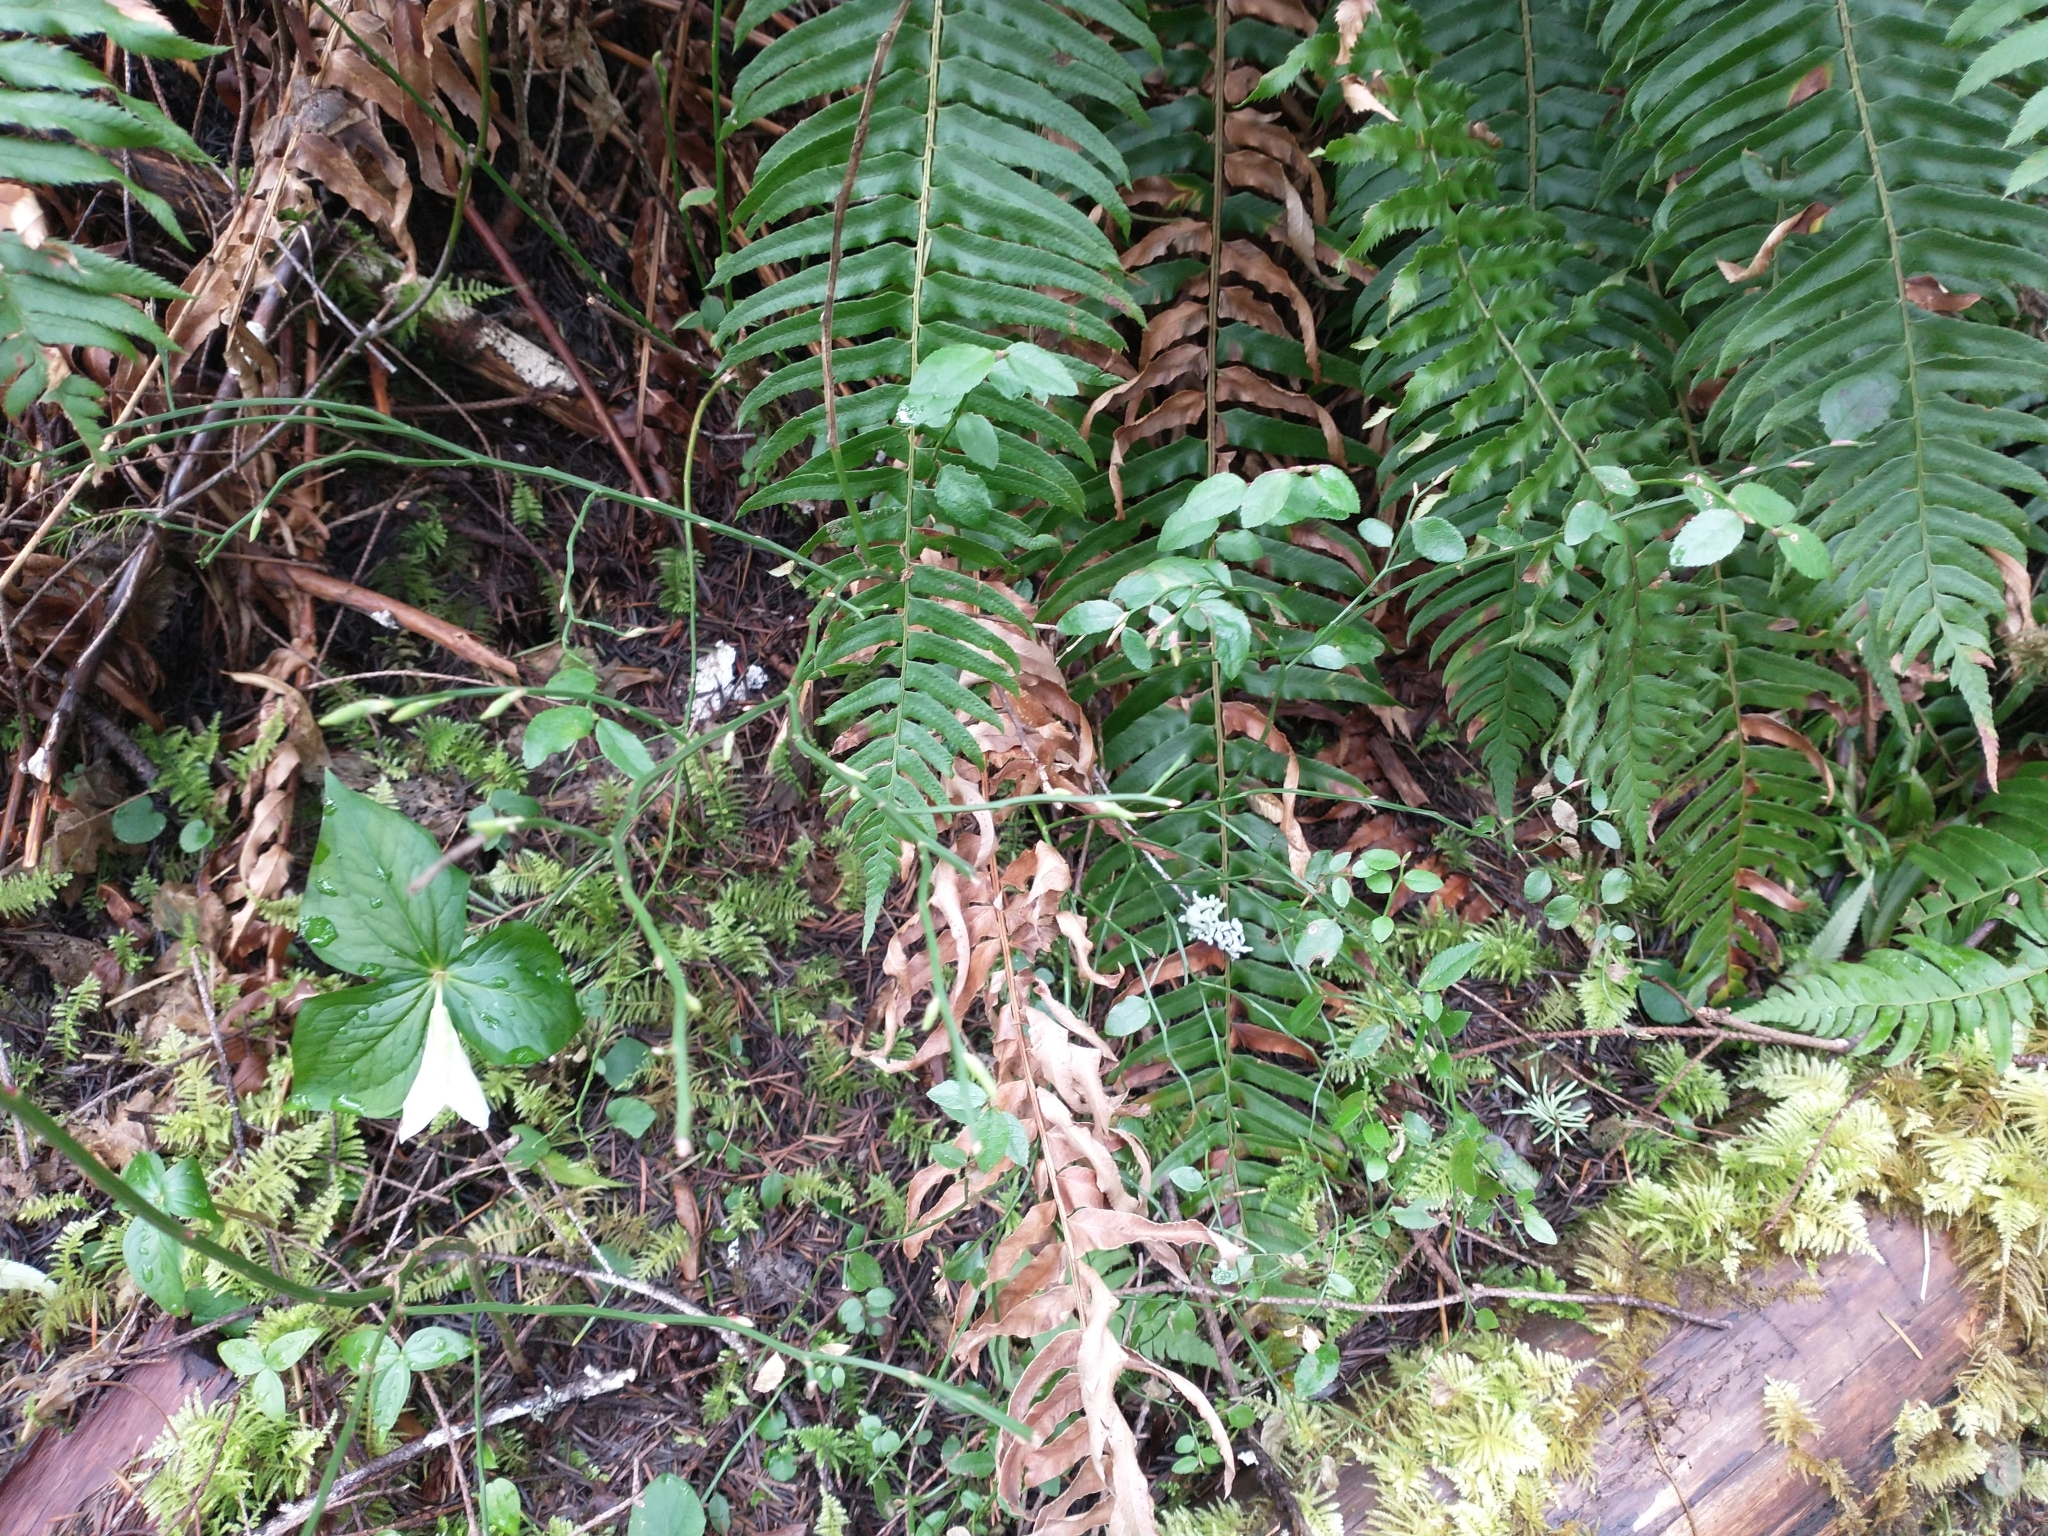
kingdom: Plantae
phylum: Tracheophyta
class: Polypodiopsida
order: Polypodiales
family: Dryopteridaceae
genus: Polystichum
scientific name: Polystichum munitum
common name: Western sword-fern
